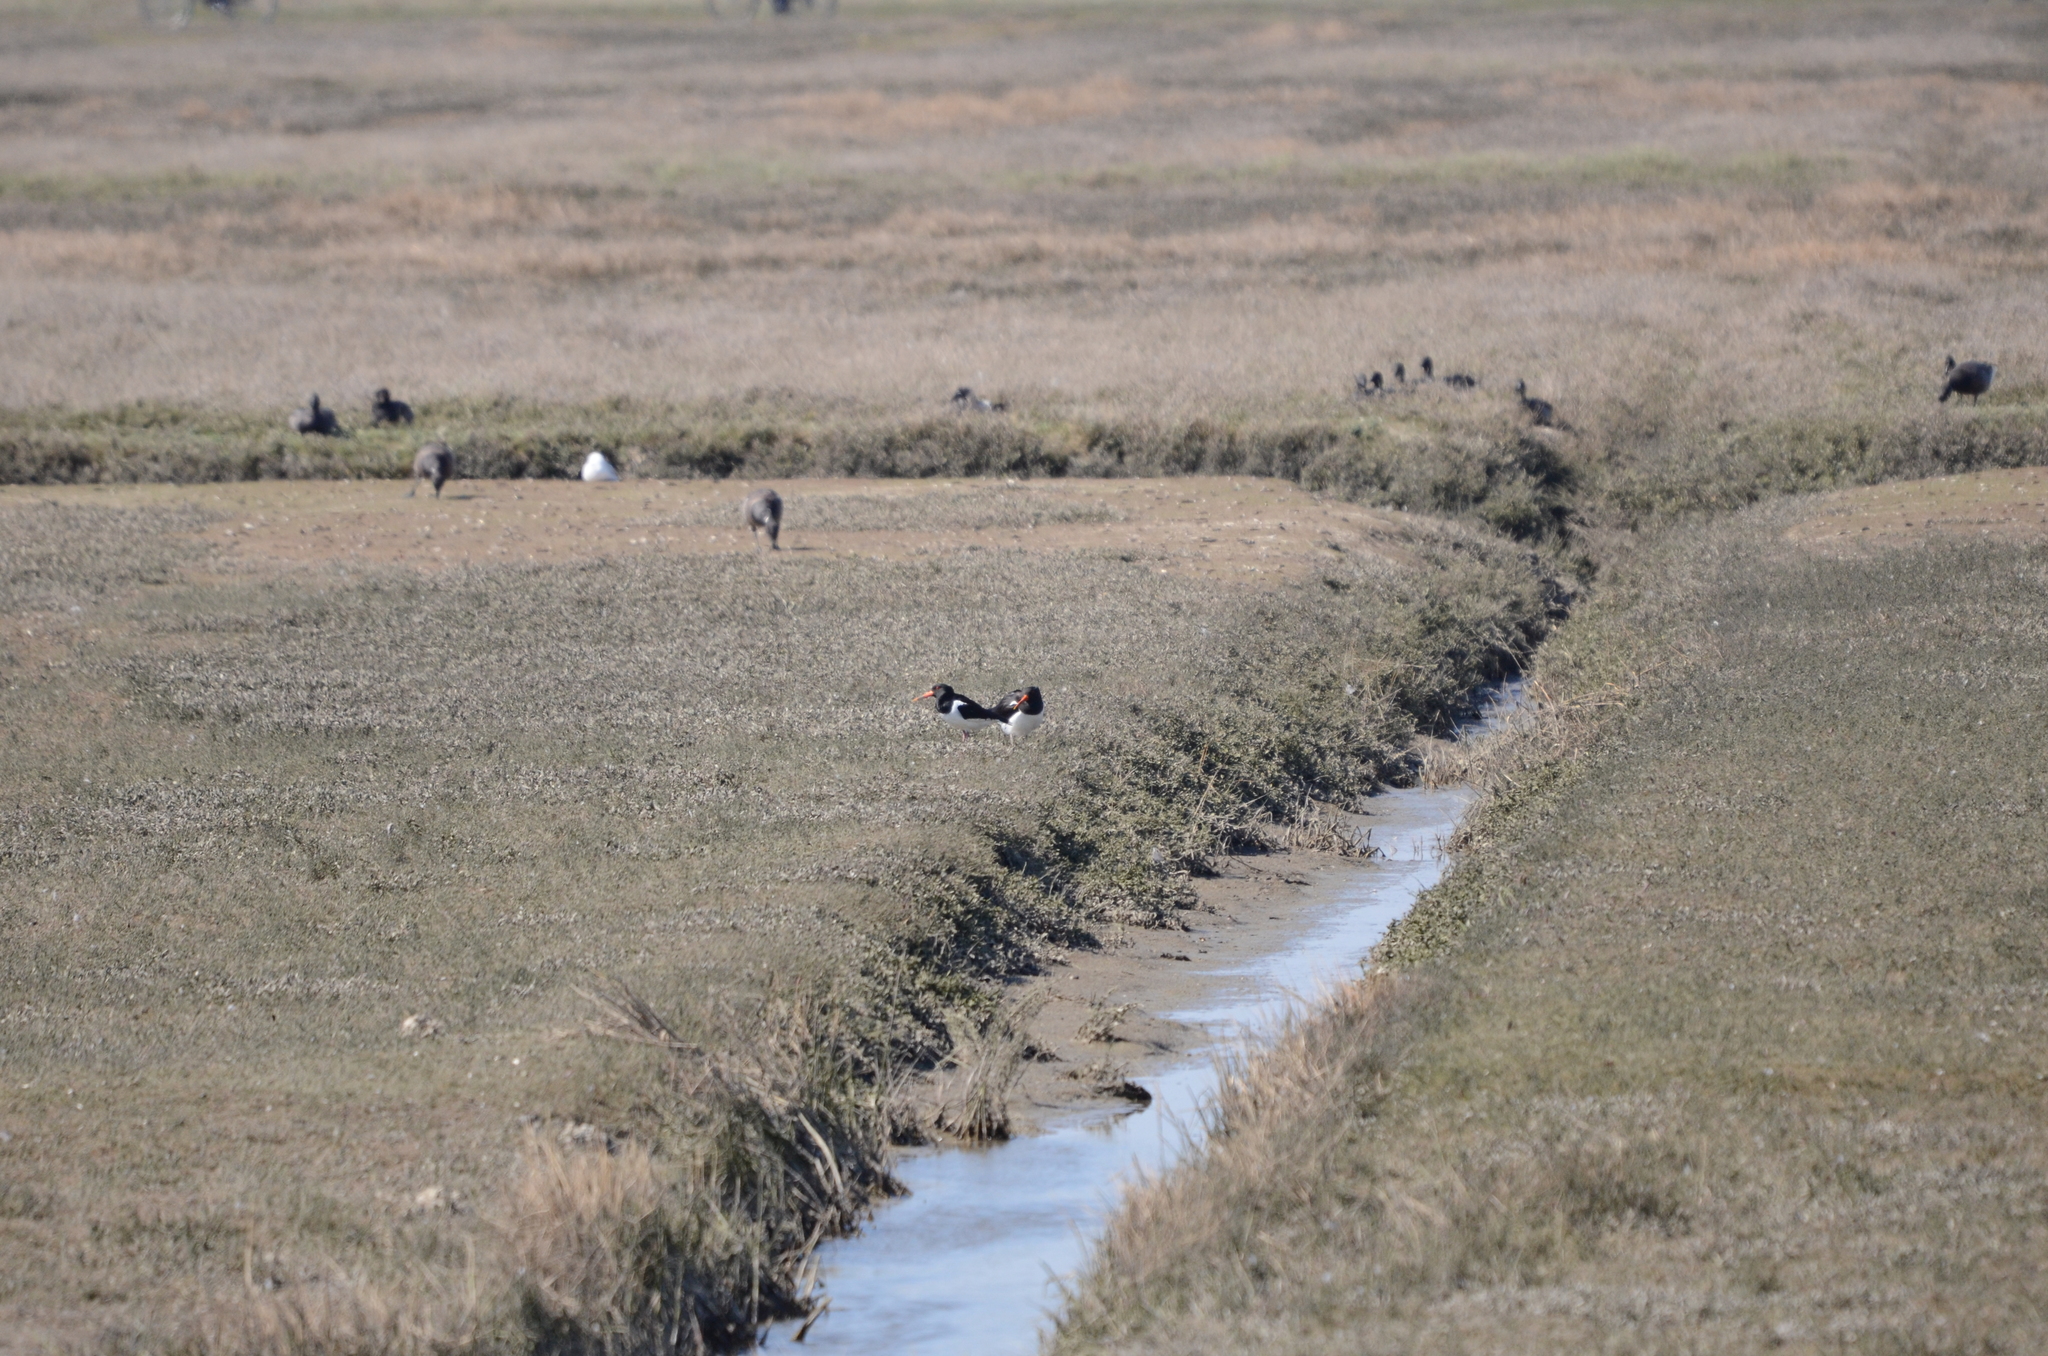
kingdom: Animalia
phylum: Chordata
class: Aves
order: Charadriiformes
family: Haematopodidae
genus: Haematopus
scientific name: Haematopus ostralegus
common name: Eurasian oystercatcher
